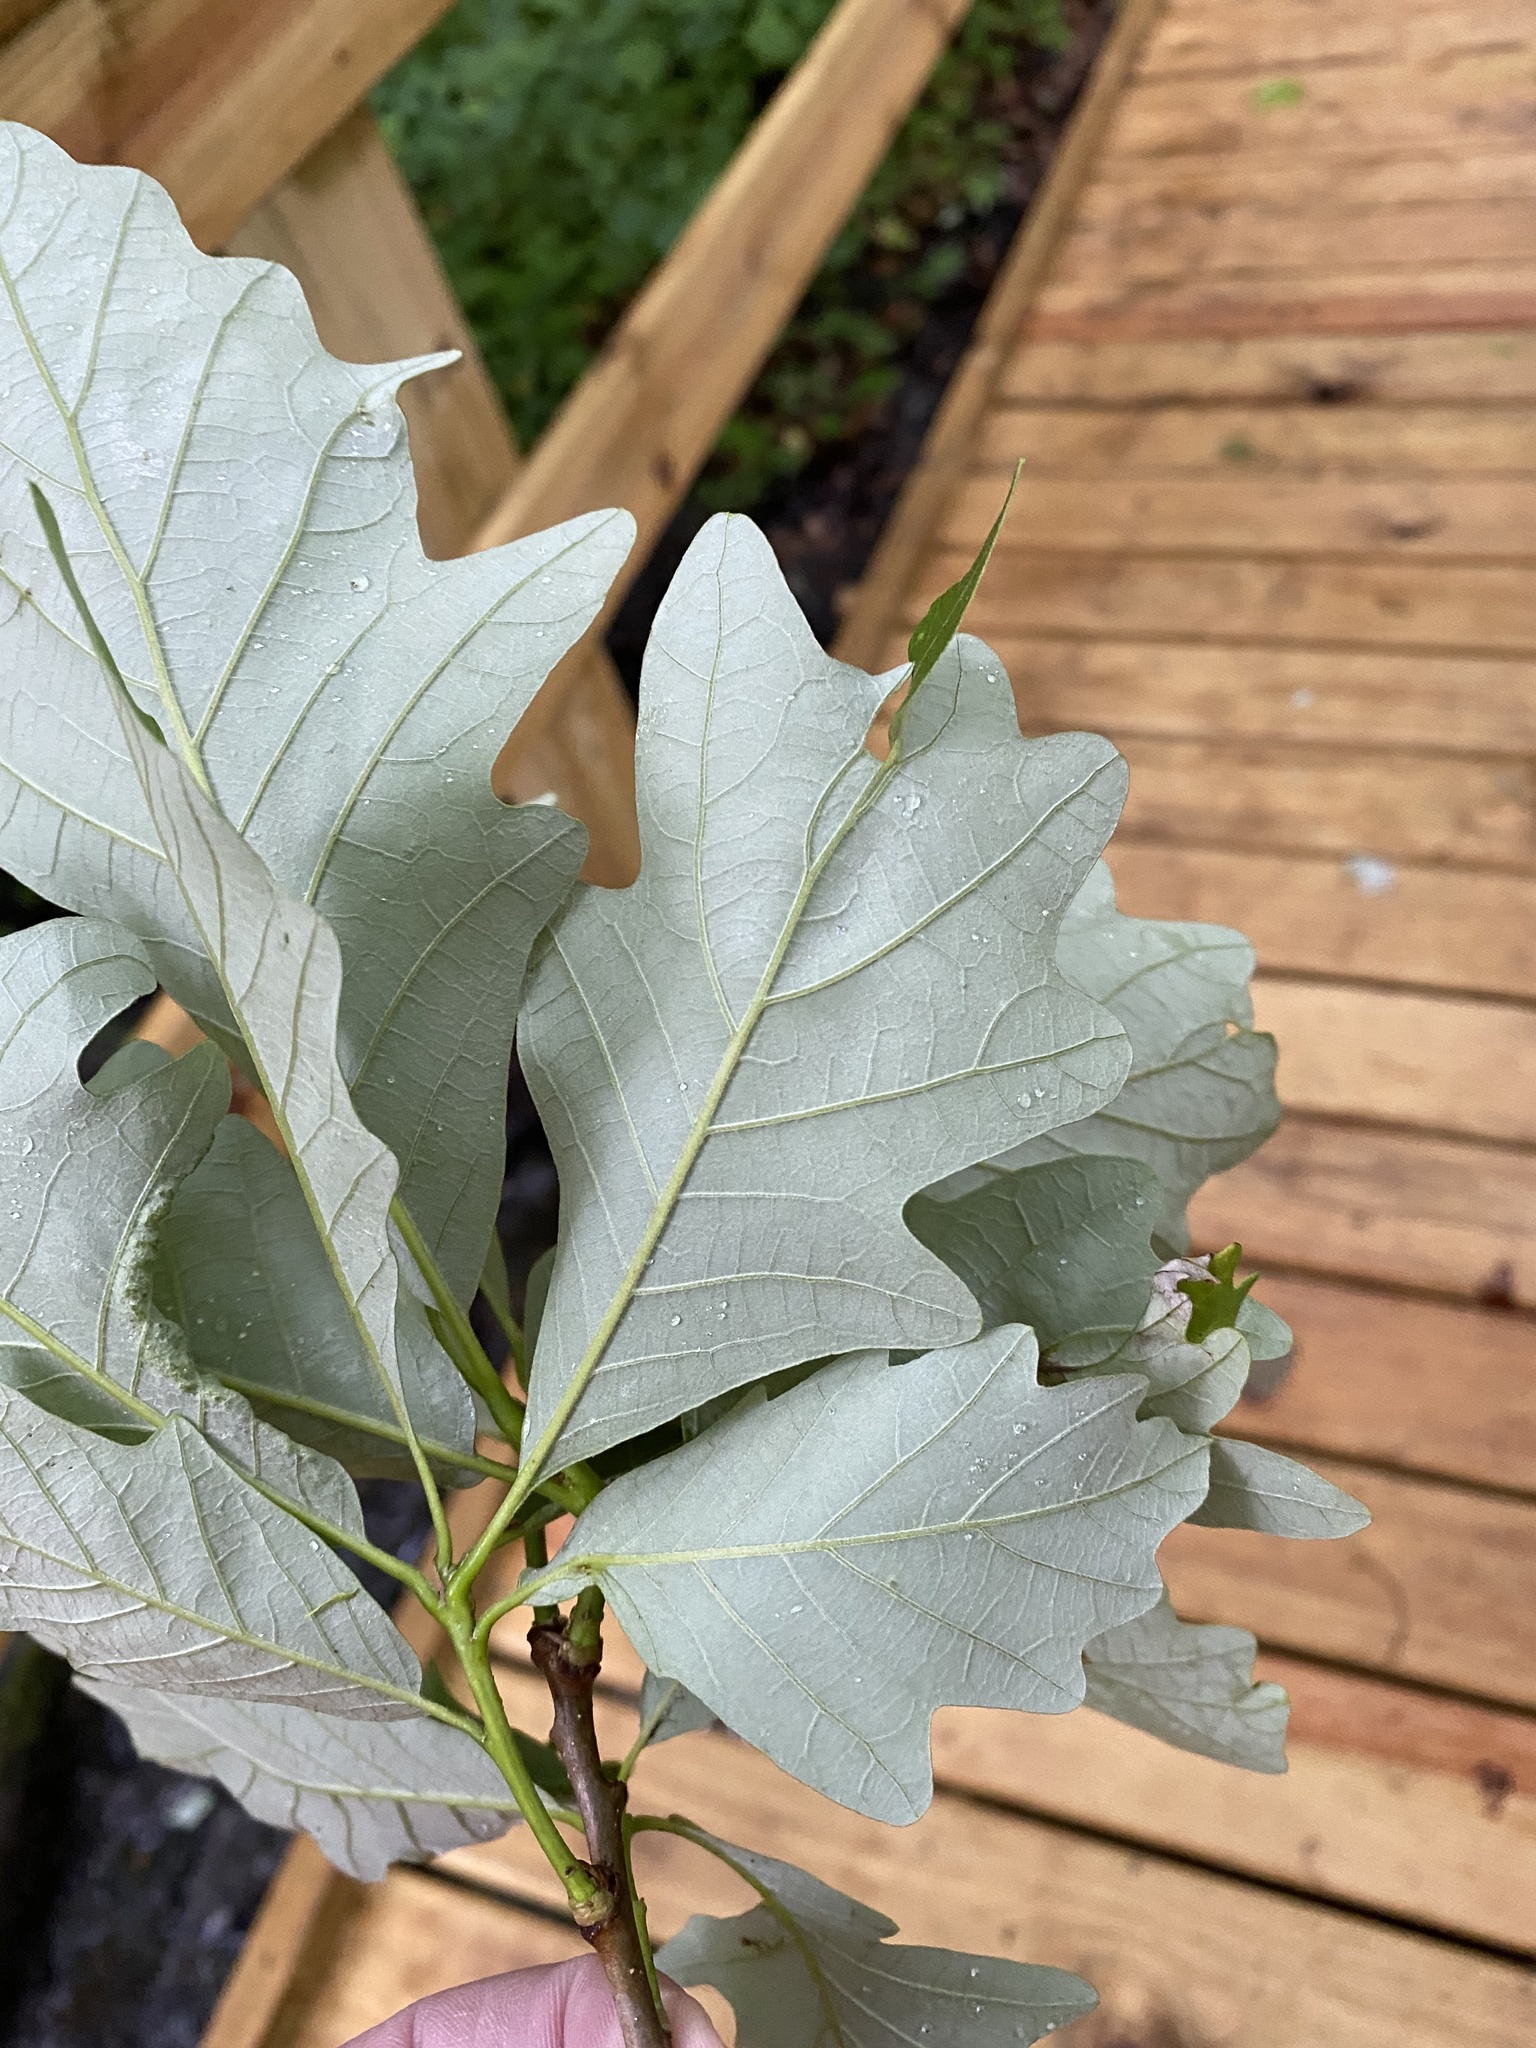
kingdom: Plantae
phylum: Tracheophyta
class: Magnoliopsida
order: Fagales
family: Fagaceae
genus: Quercus
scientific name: Quercus bicolor
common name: Swamp white oak
